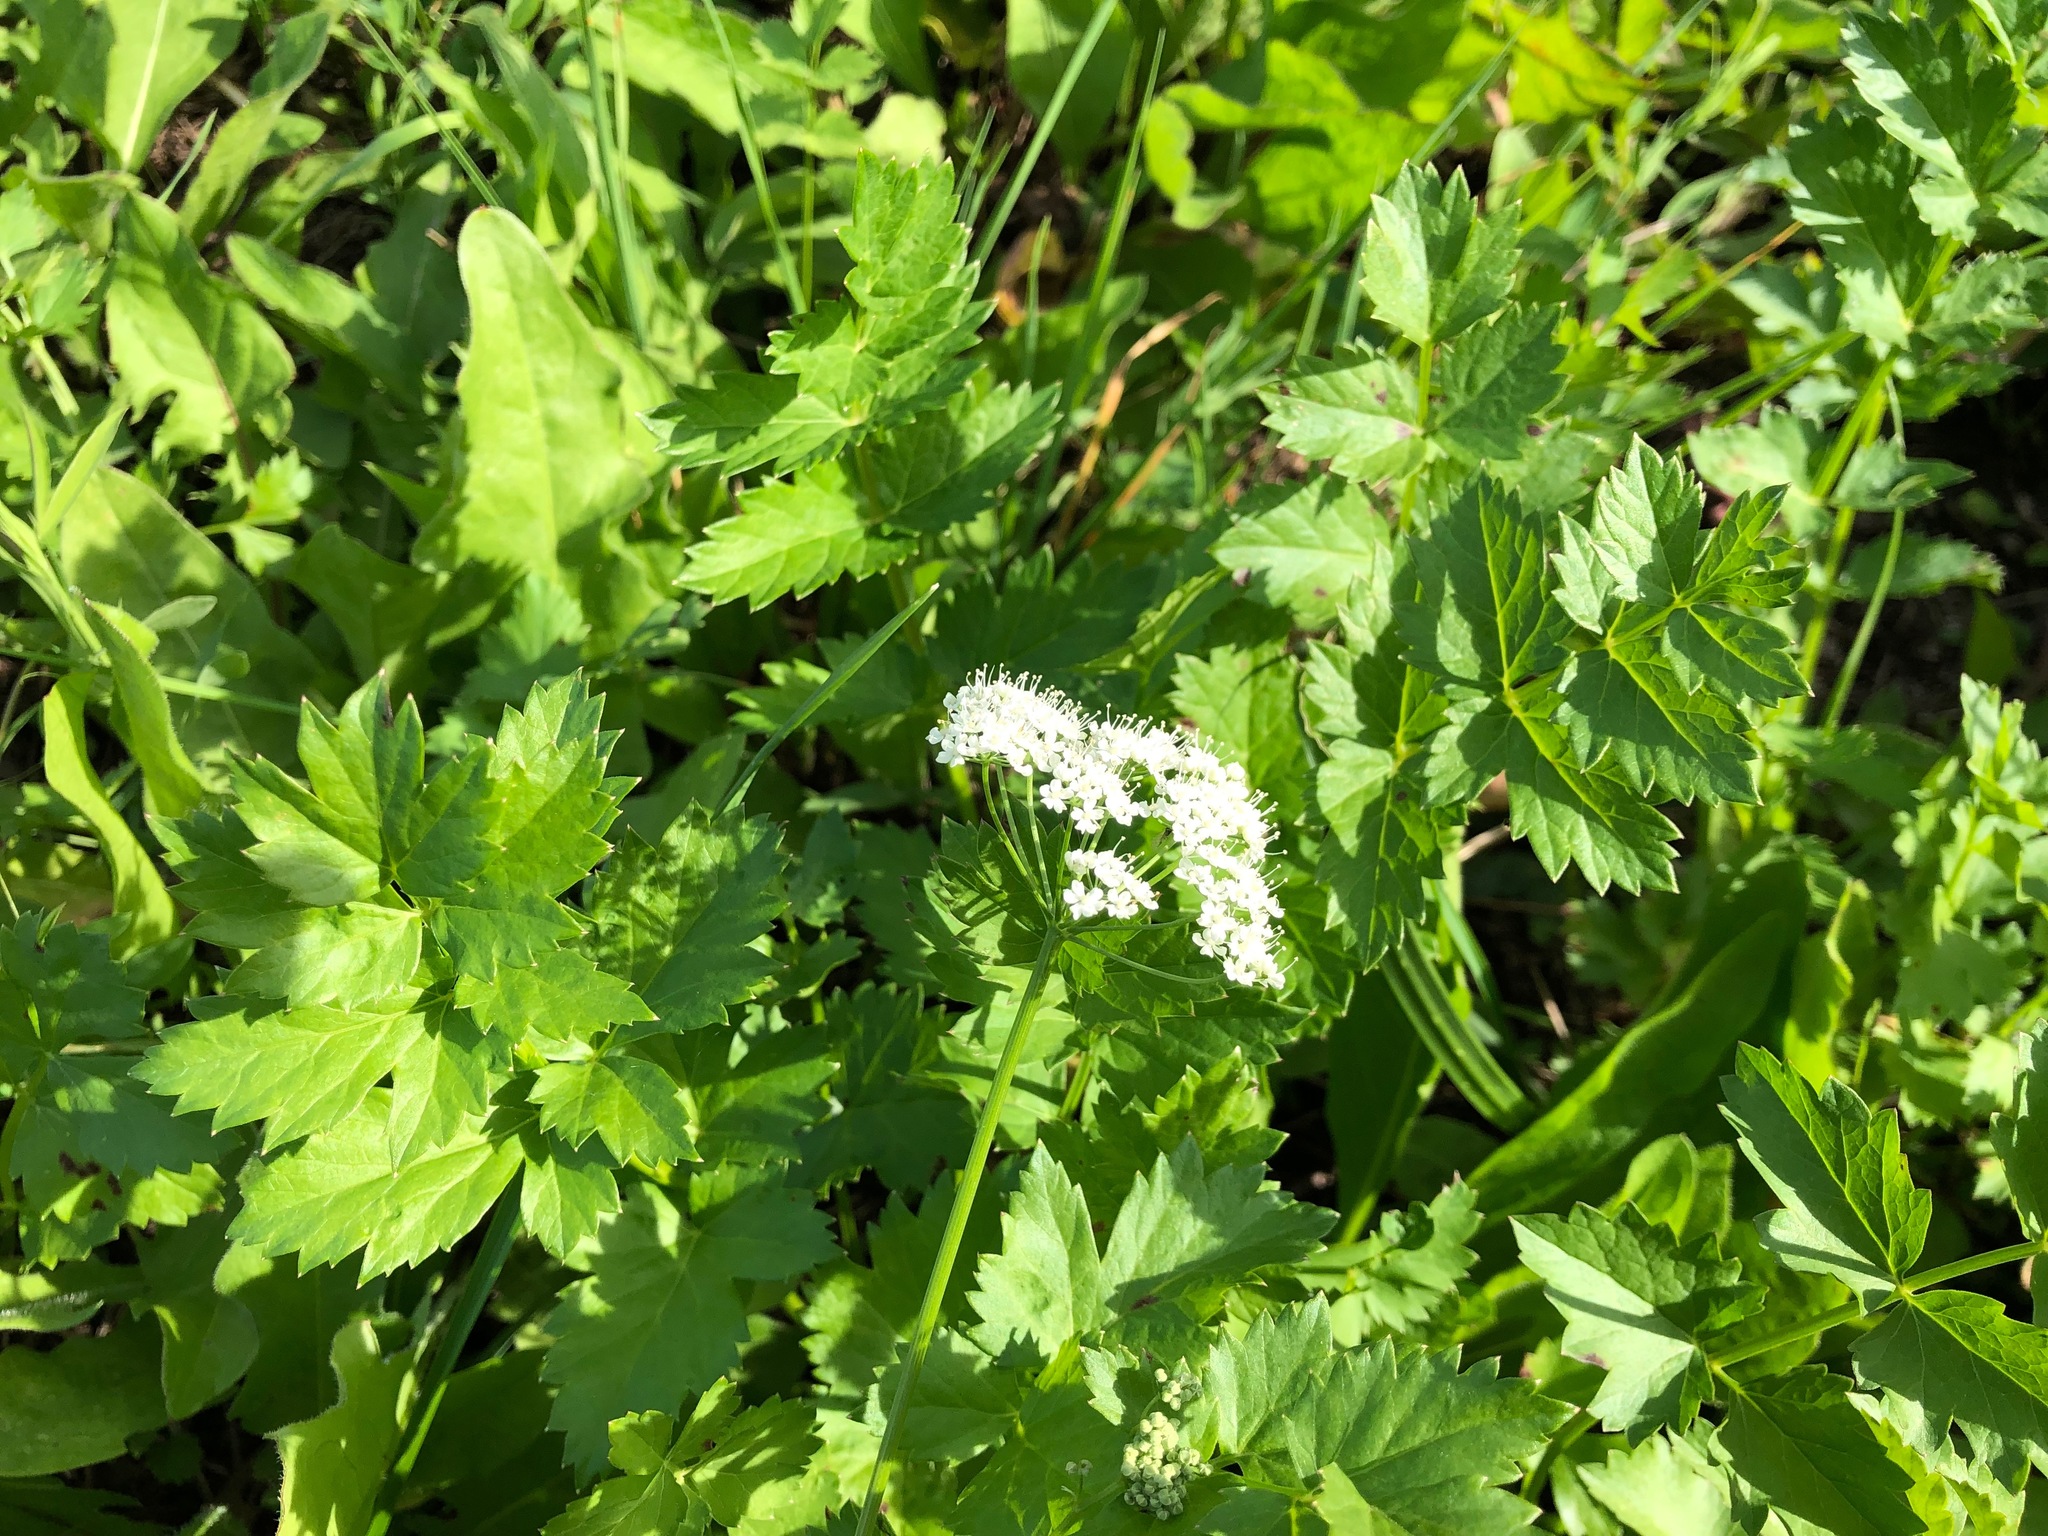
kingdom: Plantae
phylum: Tracheophyta
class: Magnoliopsida
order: Apiales
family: Apiaceae
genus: Pimpinella
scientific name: Pimpinella major
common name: Greater burnet-saxifrage
